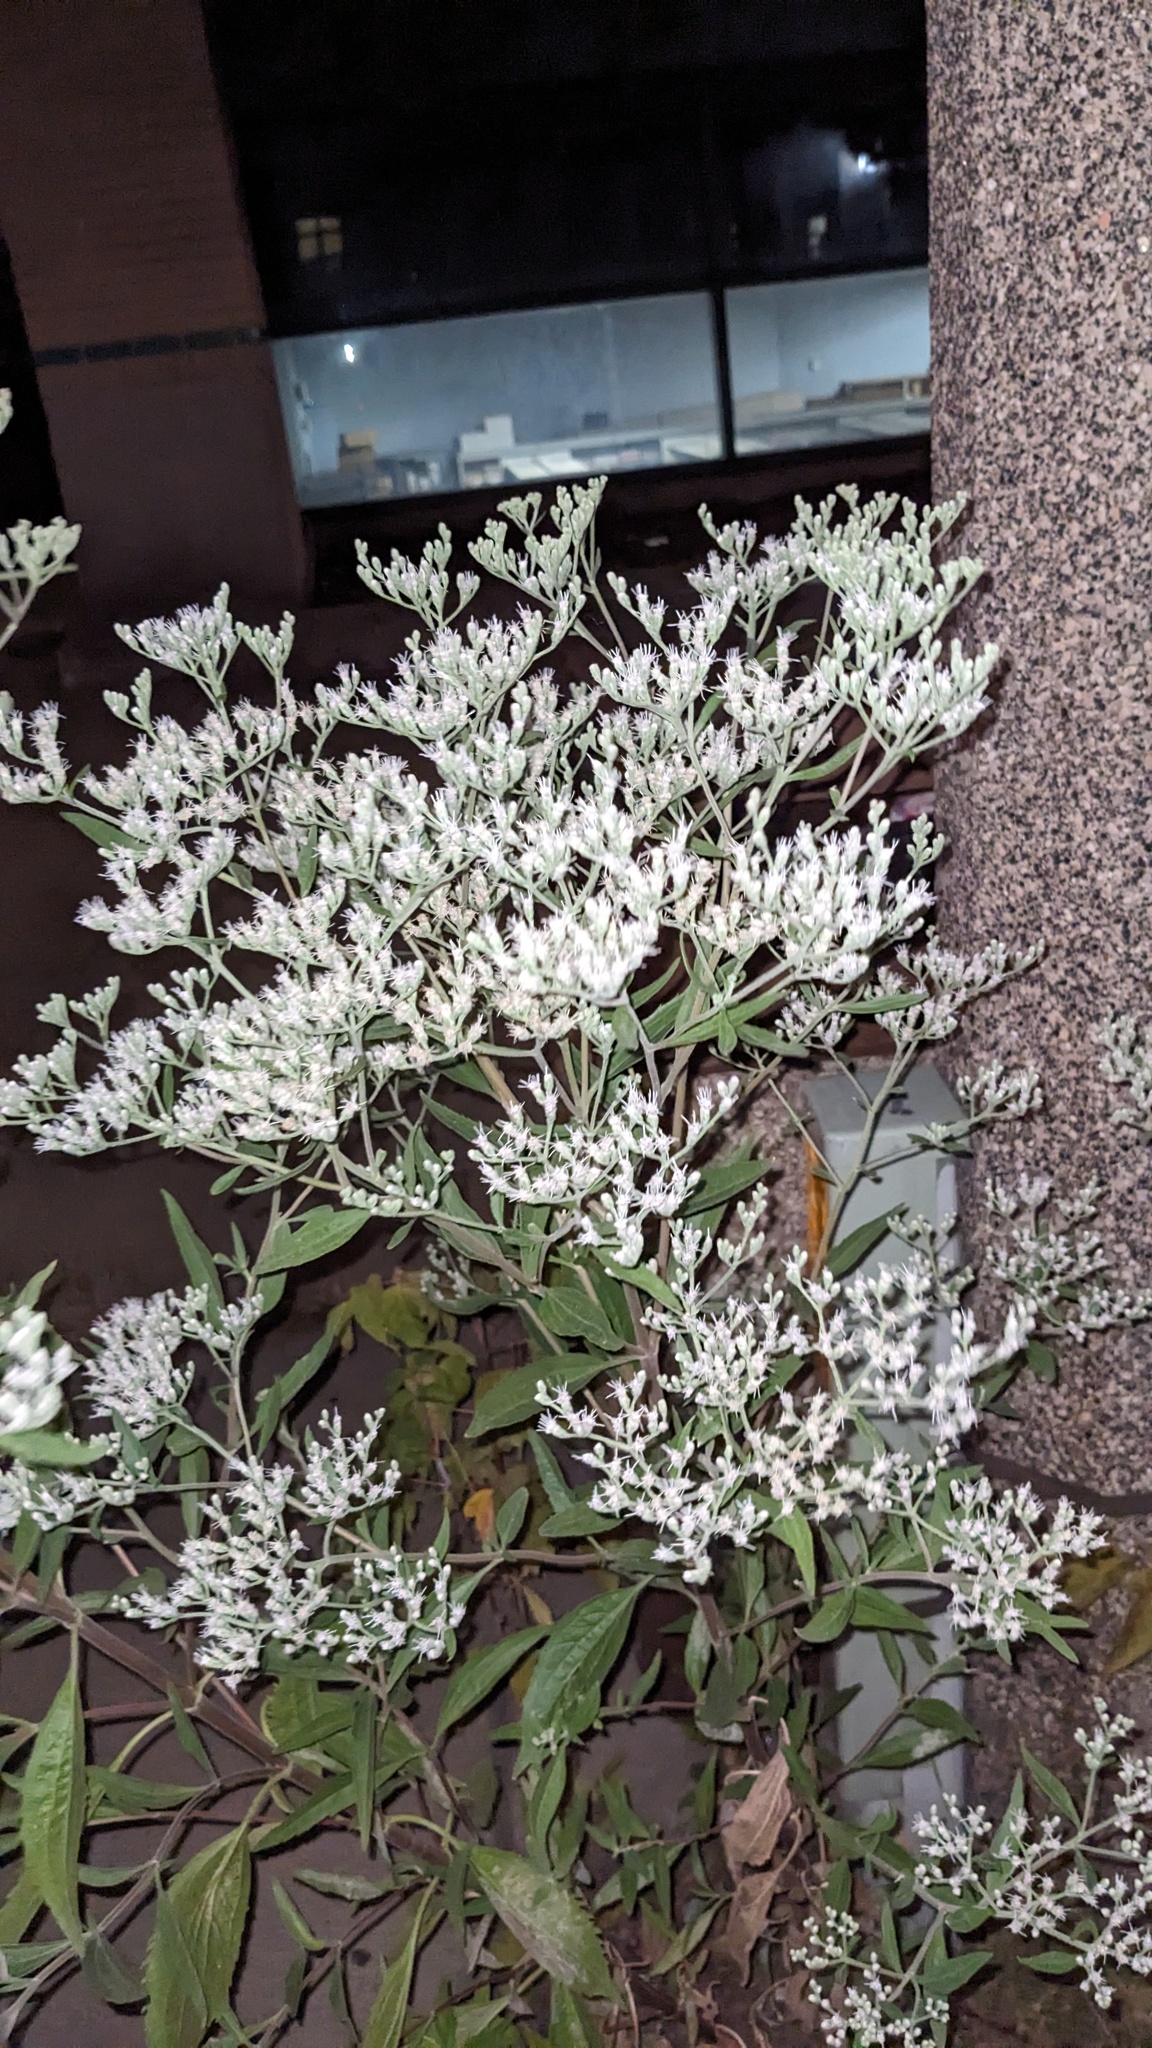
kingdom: Plantae
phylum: Tracheophyta
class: Magnoliopsida
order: Asterales
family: Asteraceae
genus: Eupatorium
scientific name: Eupatorium serotinum
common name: Late boneset
